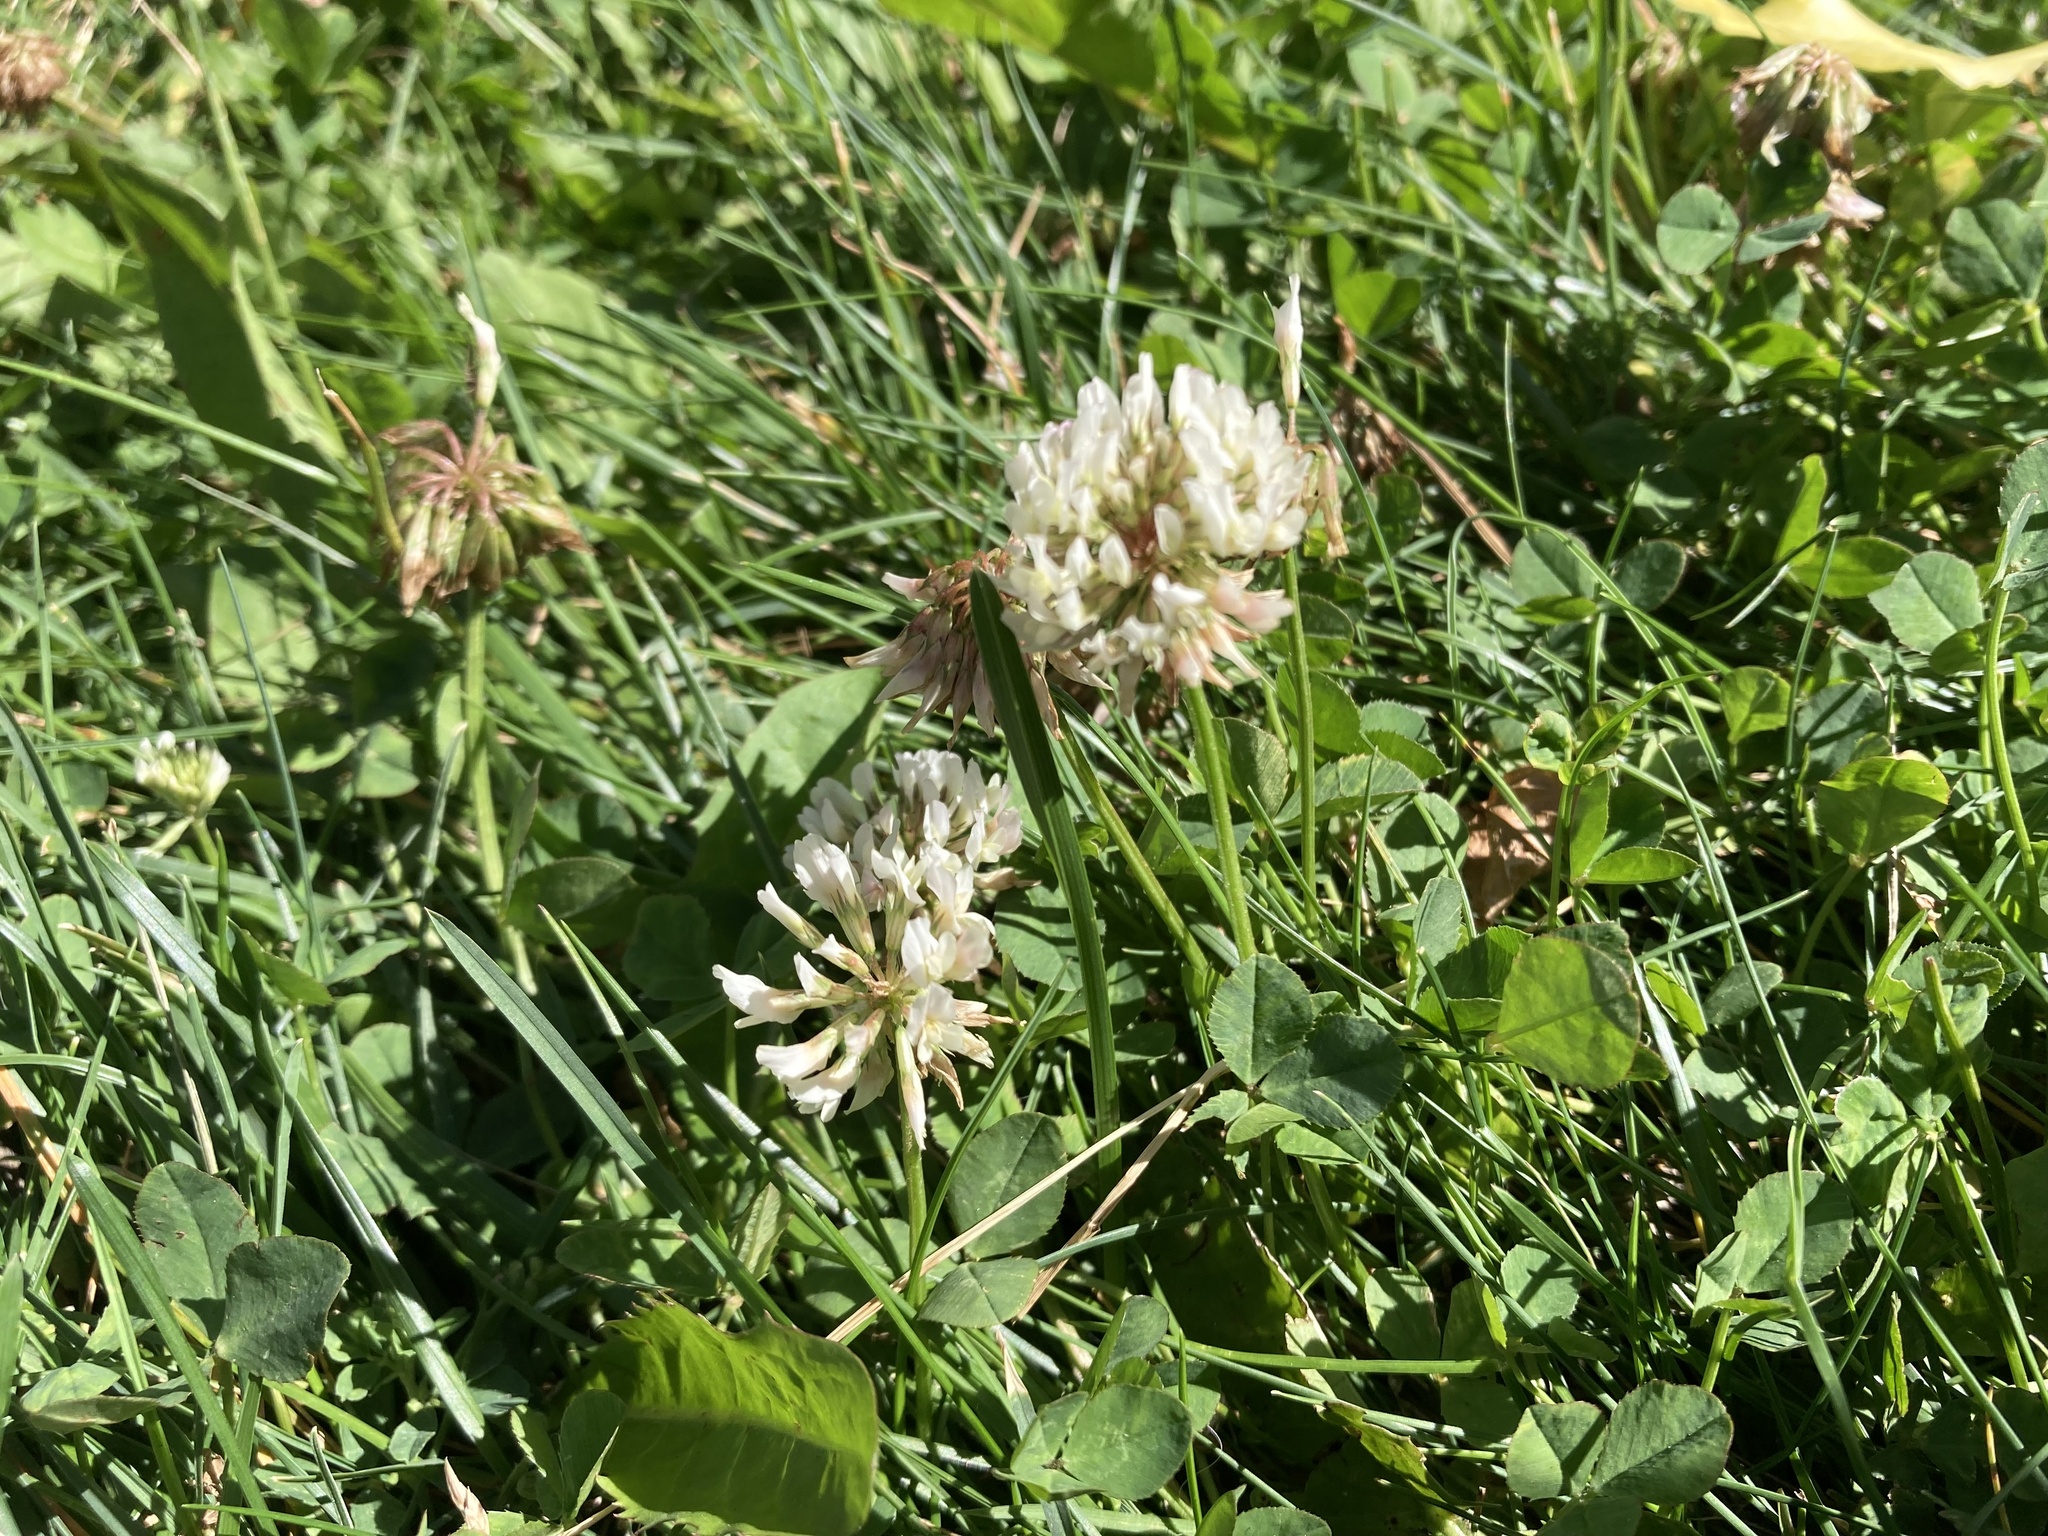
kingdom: Plantae
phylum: Tracheophyta
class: Magnoliopsida
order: Fabales
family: Fabaceae
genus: Trifolium
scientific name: Trifolium repens
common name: White clover
